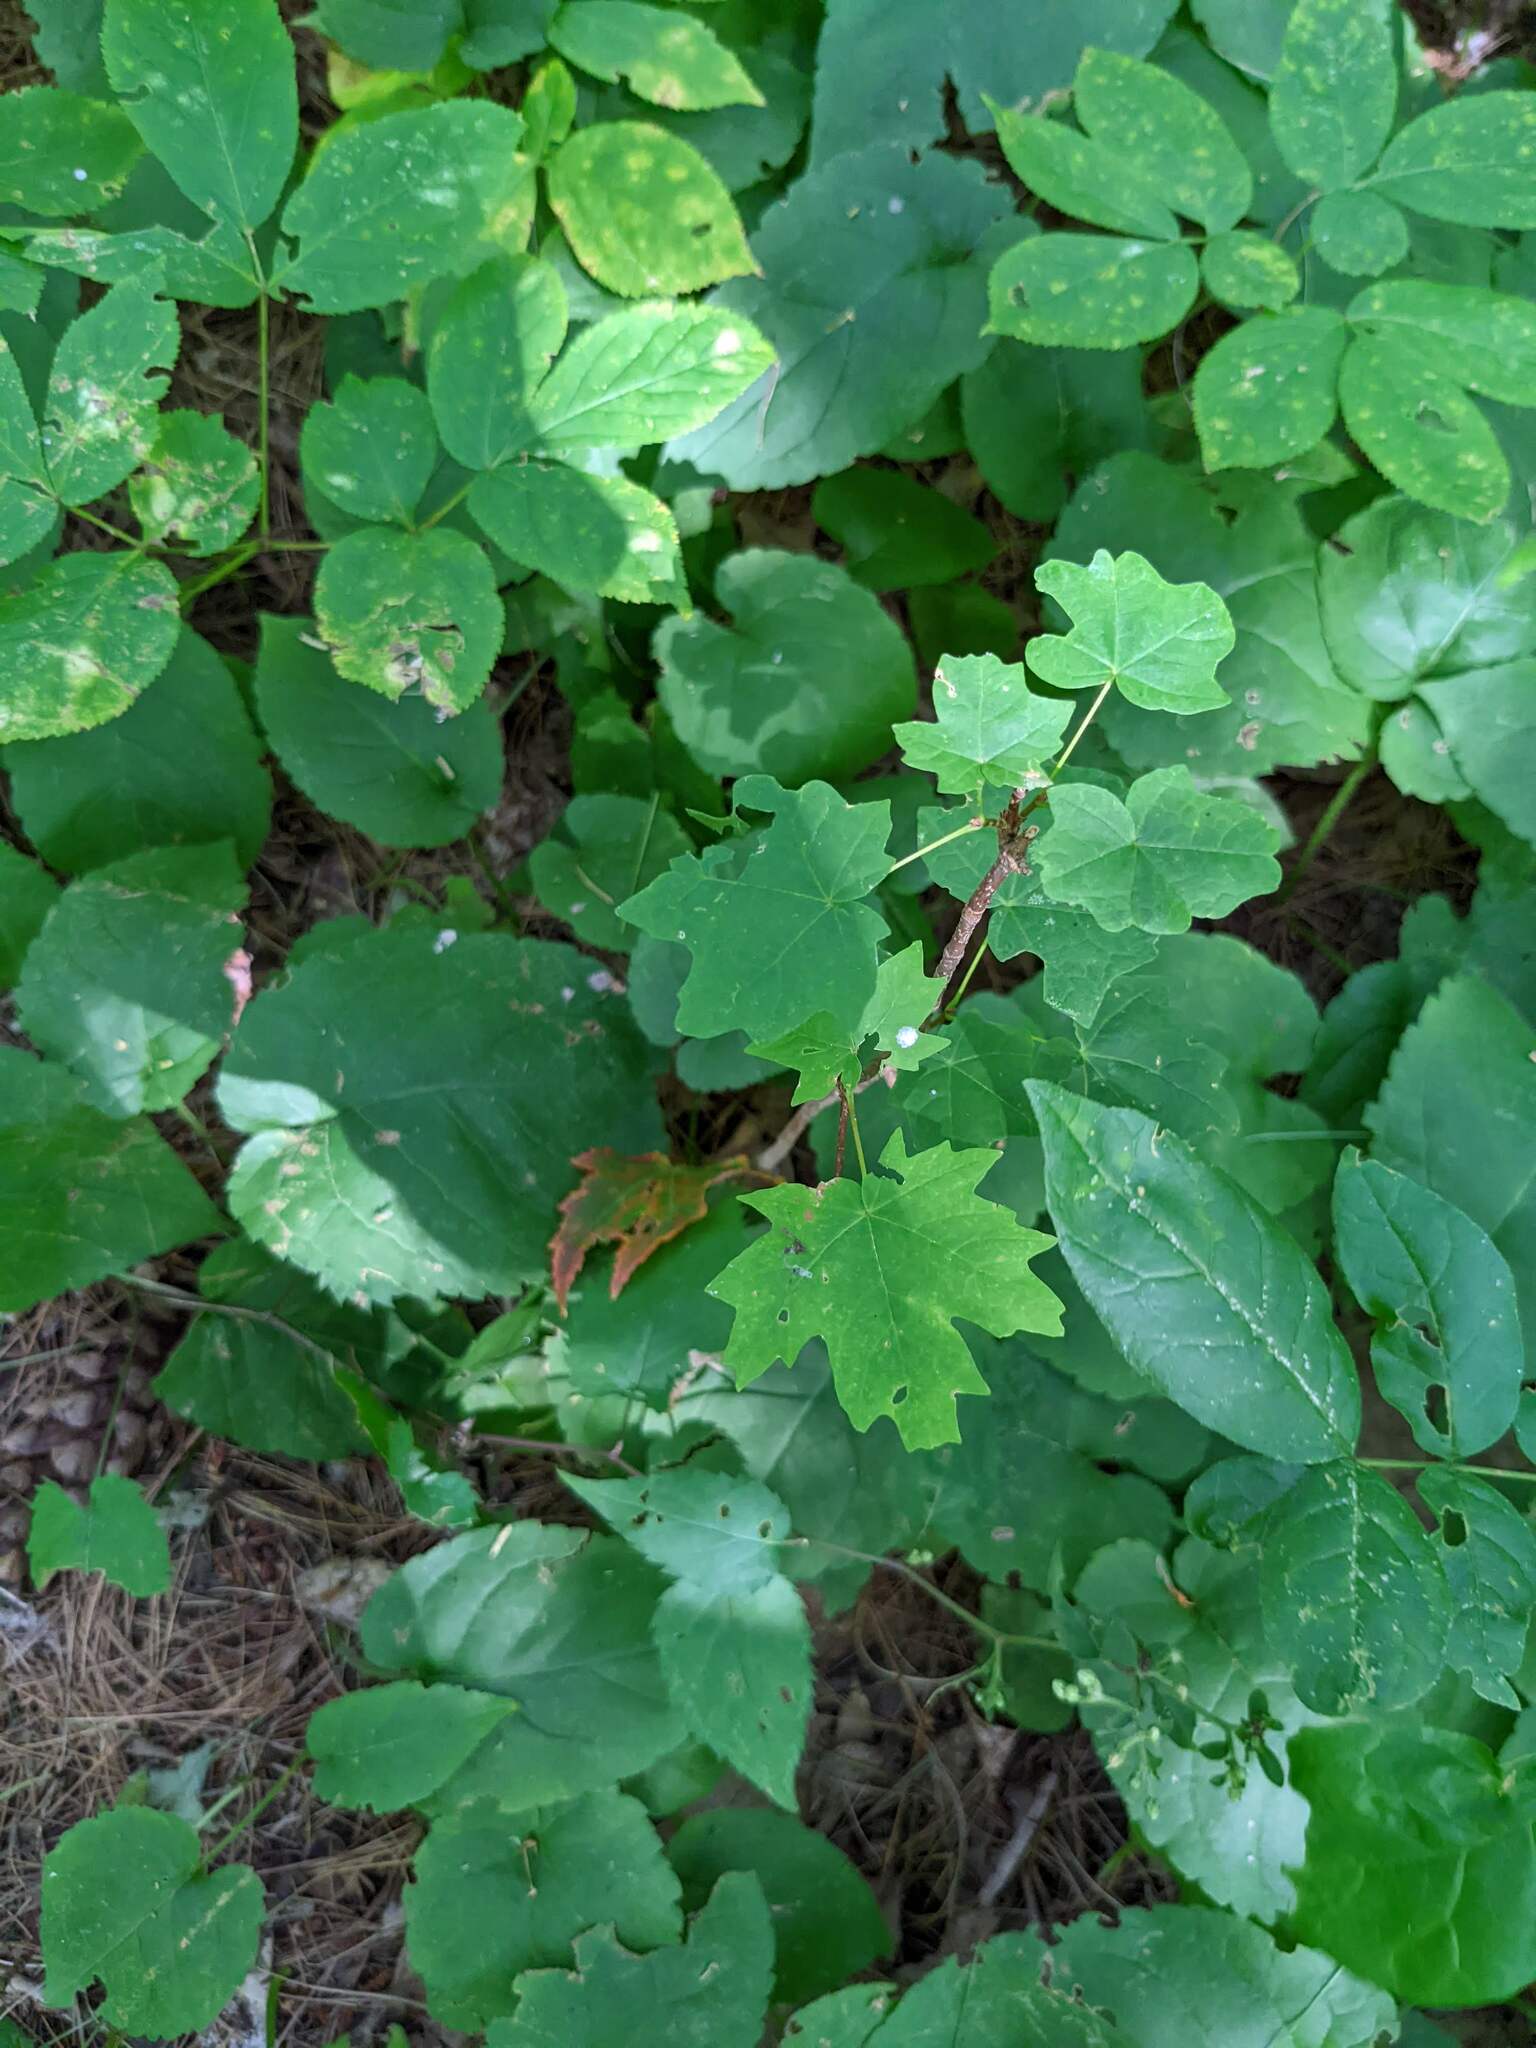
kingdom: Plantae
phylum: Tracheophyta
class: Magnoliopsida
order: Sapindales
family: Sapindaceae
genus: Acer
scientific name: Acer saccharum
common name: Sugar maple
